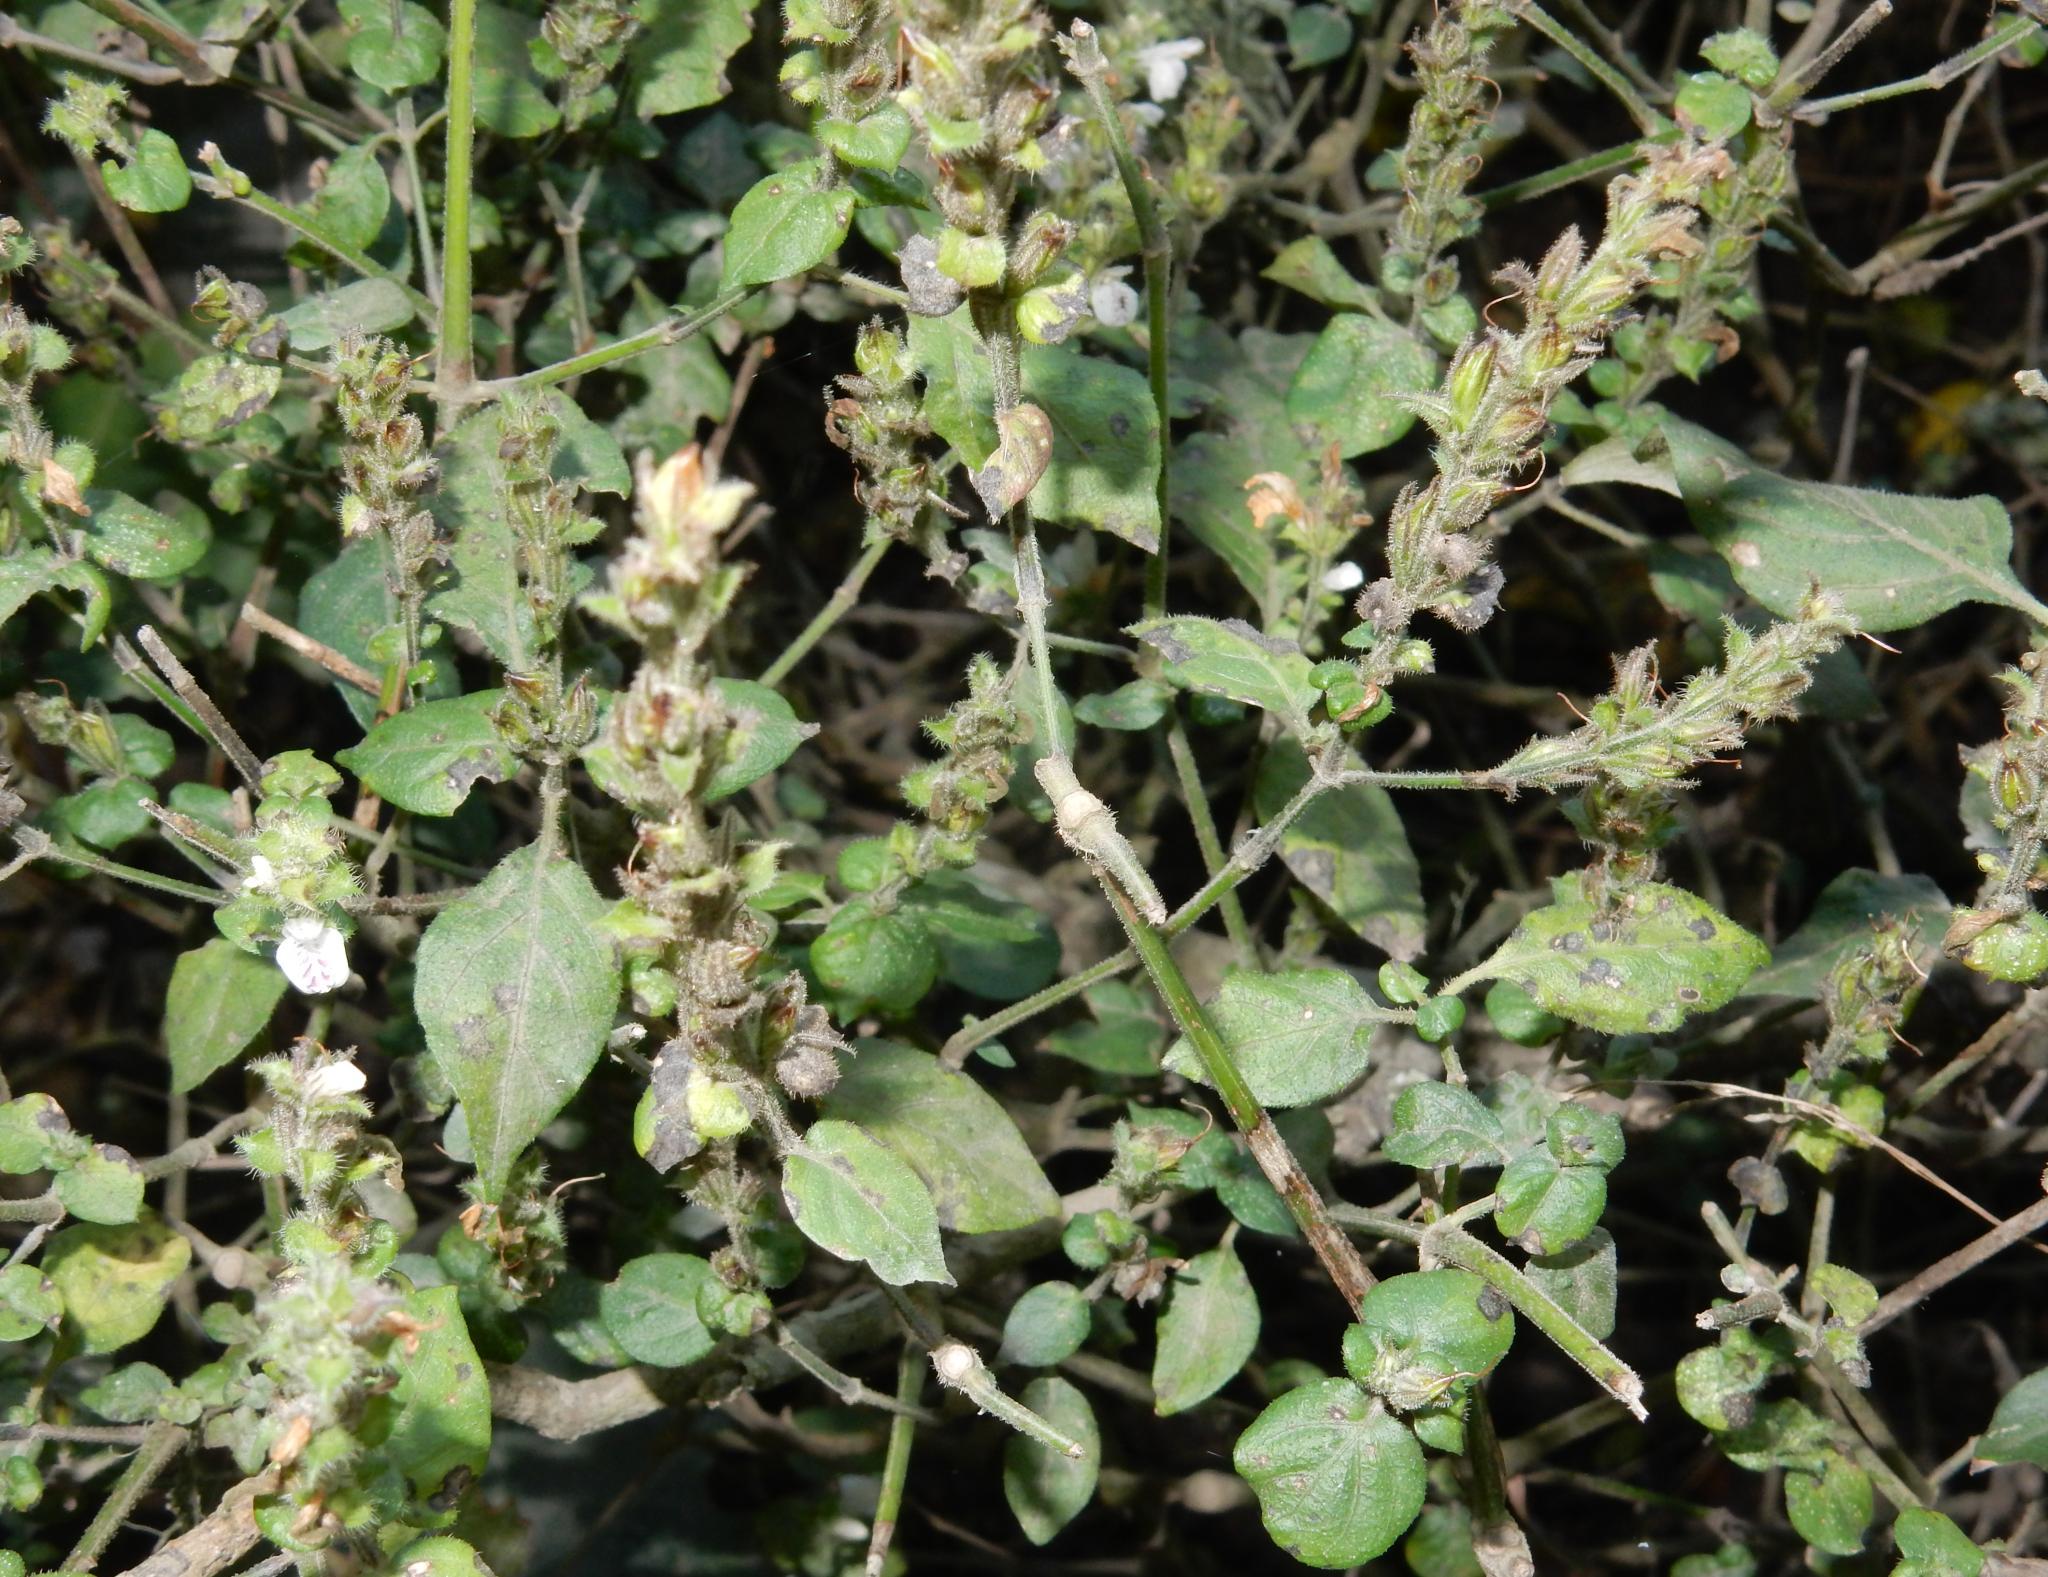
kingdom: Plantae
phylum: Tracheophyta
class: Magnoliopsida
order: Lamiales
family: Acanthaceae
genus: Isoglossa
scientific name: Isoglossa ciliata
